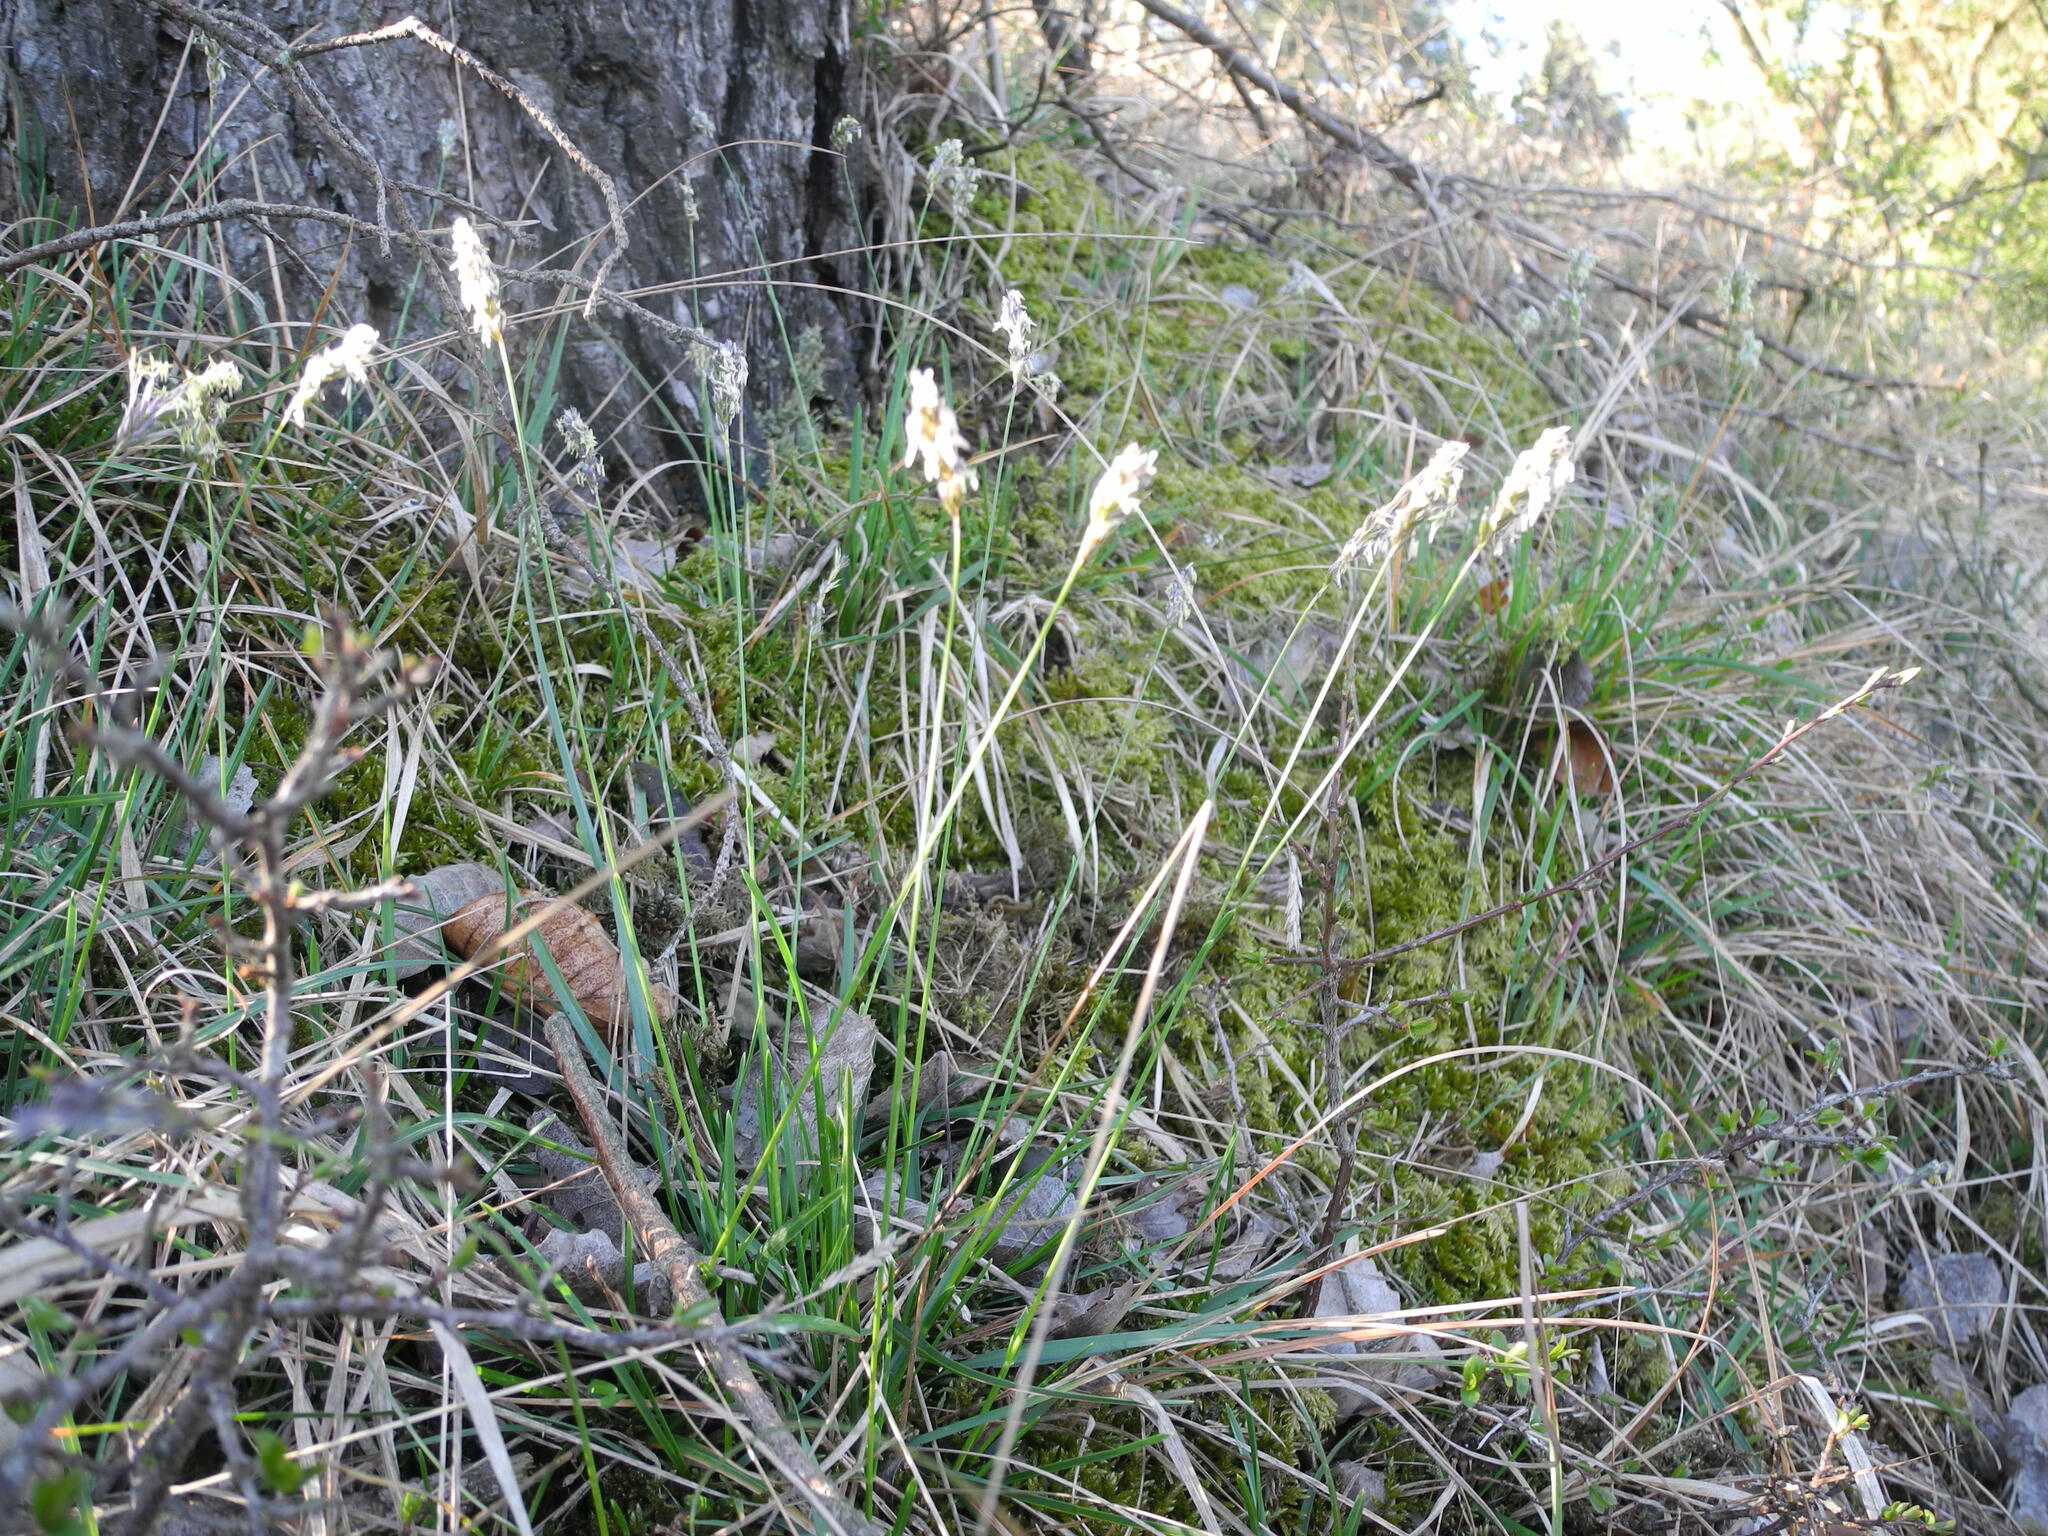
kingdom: Plantae
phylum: Tracheophyta
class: Liliopsida
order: Poales
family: Poaceae
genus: Sesleria
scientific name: Sesleria caerulea
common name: Blue moor-grass
